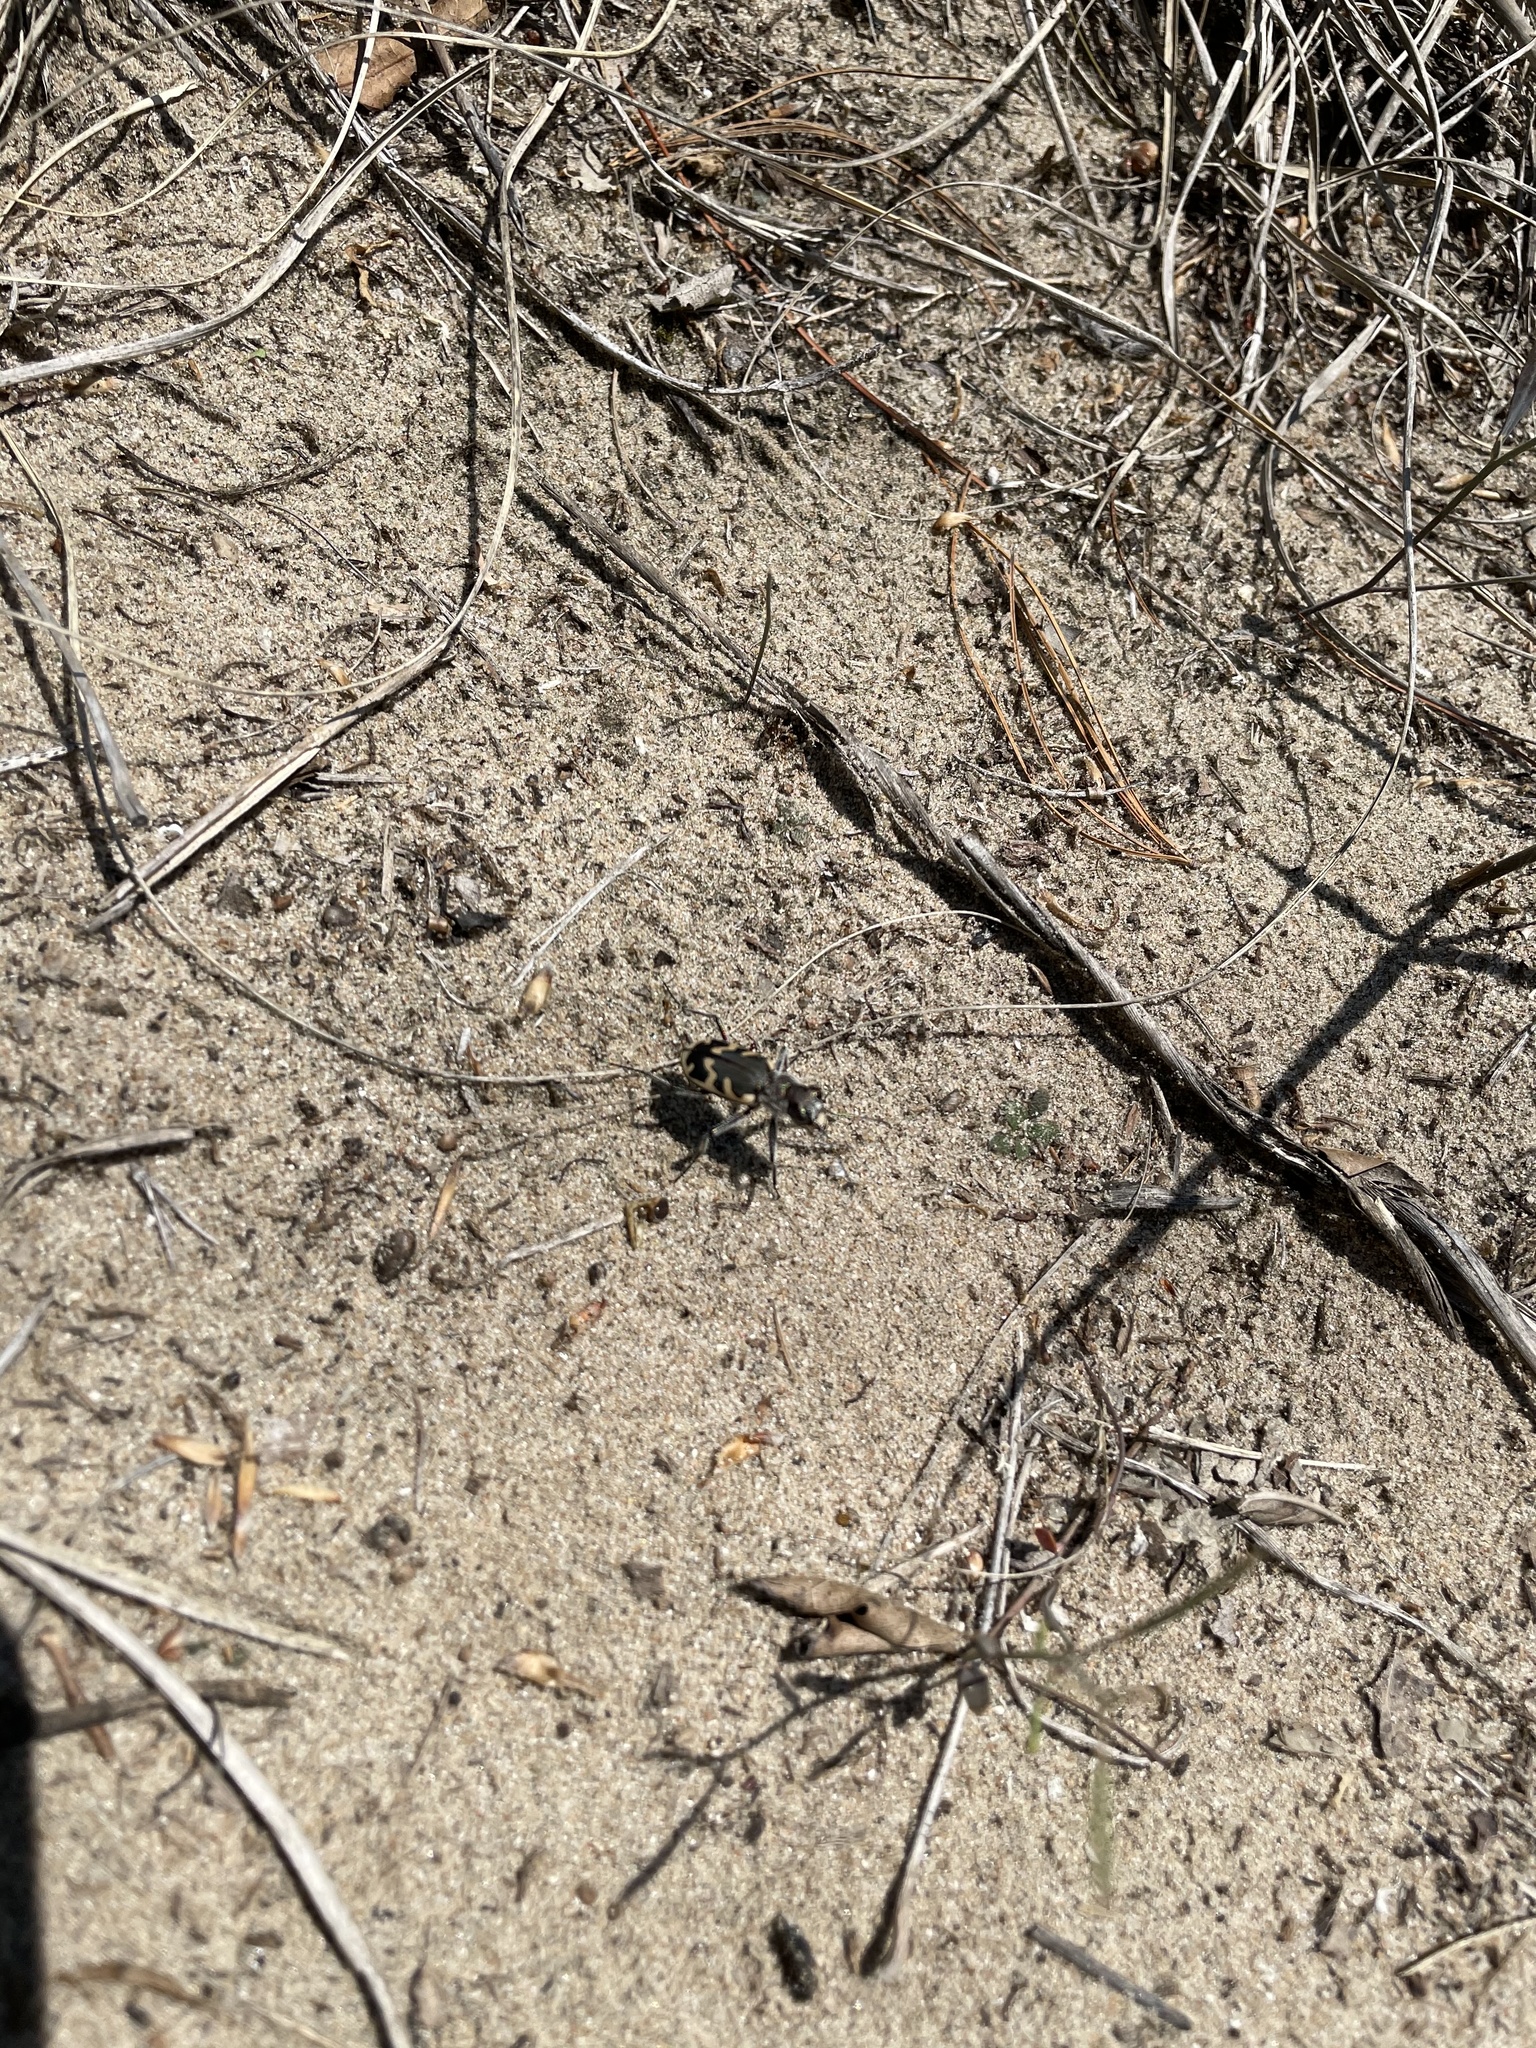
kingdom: Animalia
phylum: Arthropoda
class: Insecta
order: Coleoptera
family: Carabidae
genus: Cicindela
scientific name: Cicindela formosa
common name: Big sand tiger beetle
